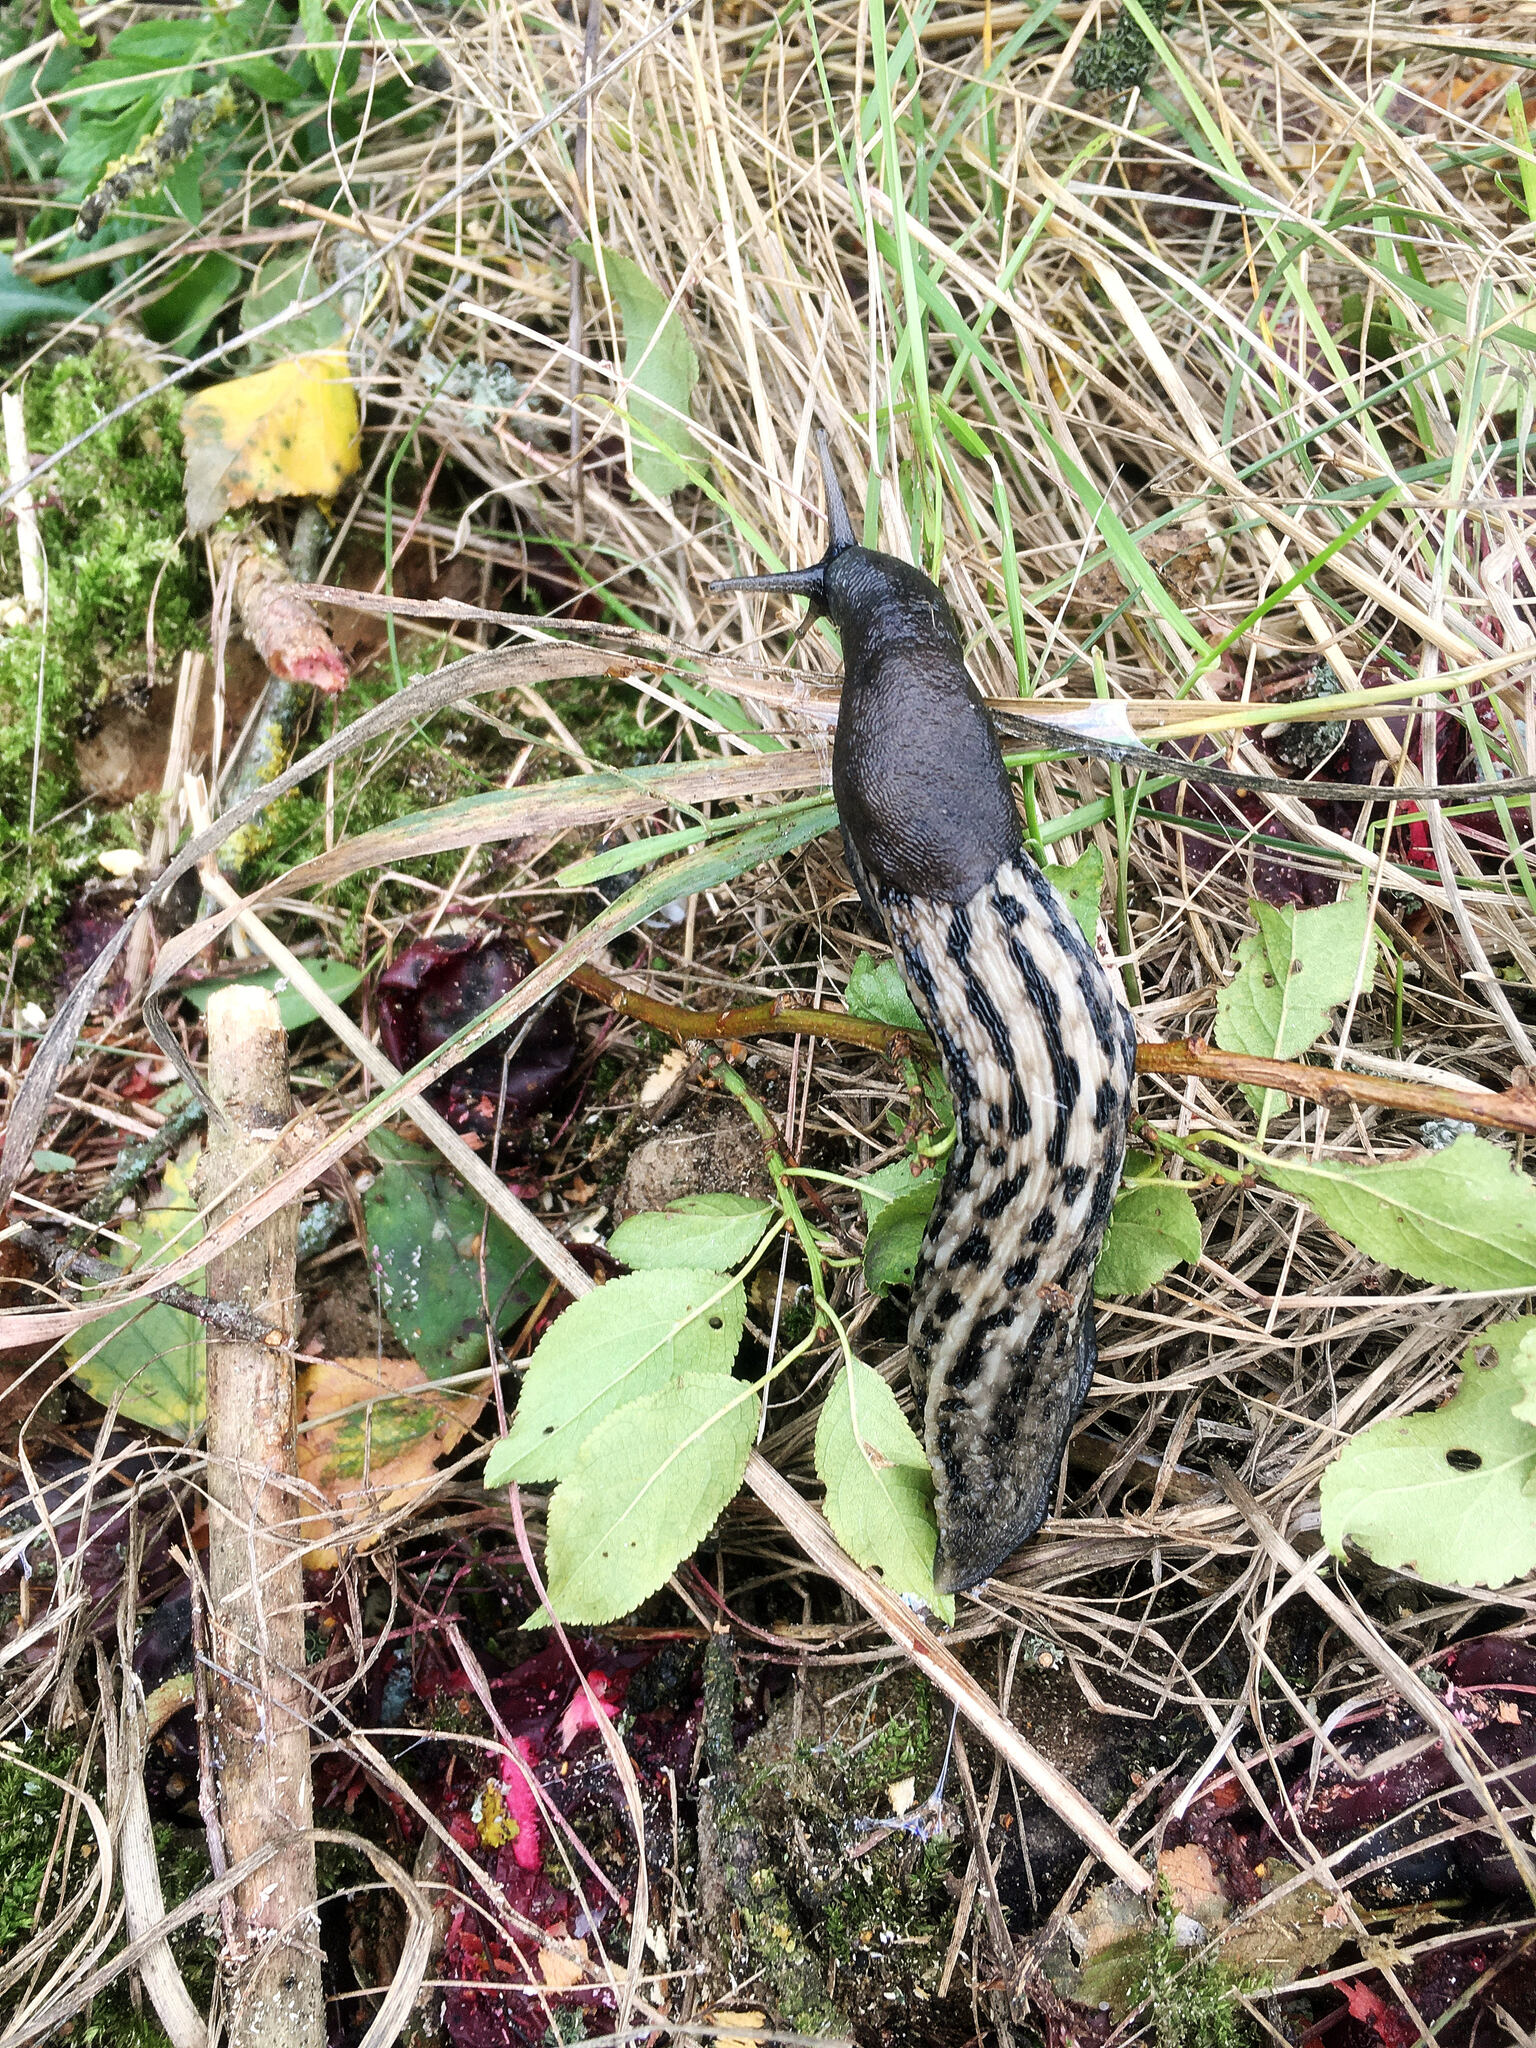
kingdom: Animalia
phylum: Mollusca
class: Gastropoda
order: Stylommatophora
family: Limacidae
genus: Limax
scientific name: Limax cinereoniger
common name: Ash-black slug
